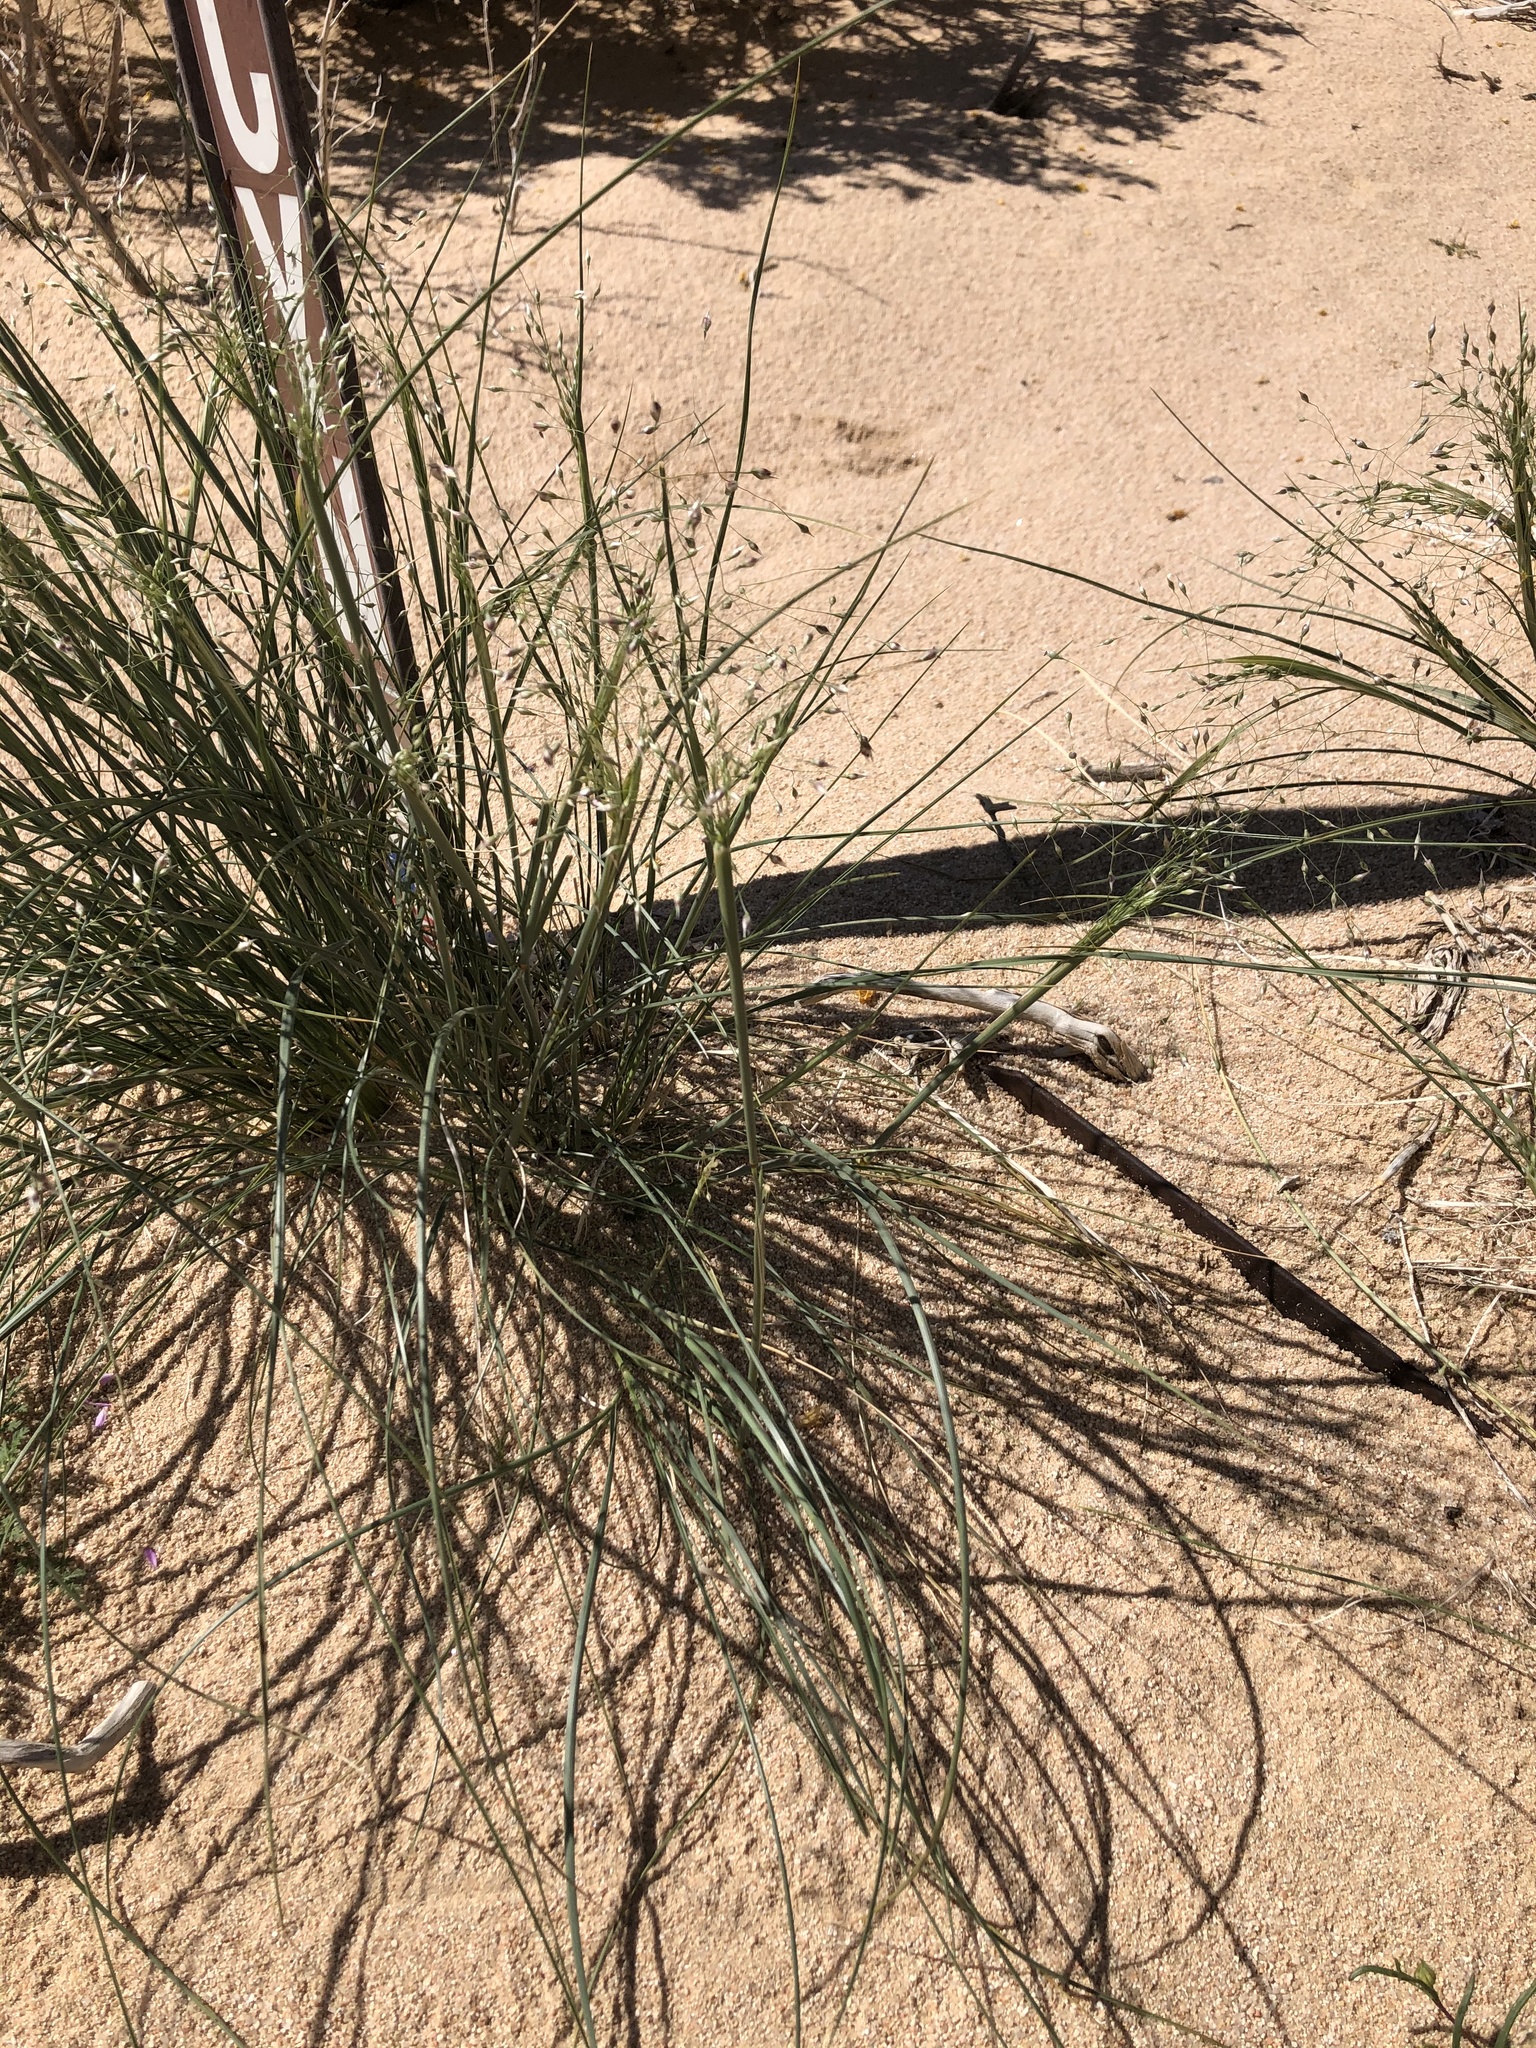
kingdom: Plantae
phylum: Tracheophyta
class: Liliopsida
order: Poales
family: Poaceae
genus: Eriocoma
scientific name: Eriocoma hymenoides
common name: Indian mountain ricegrass
